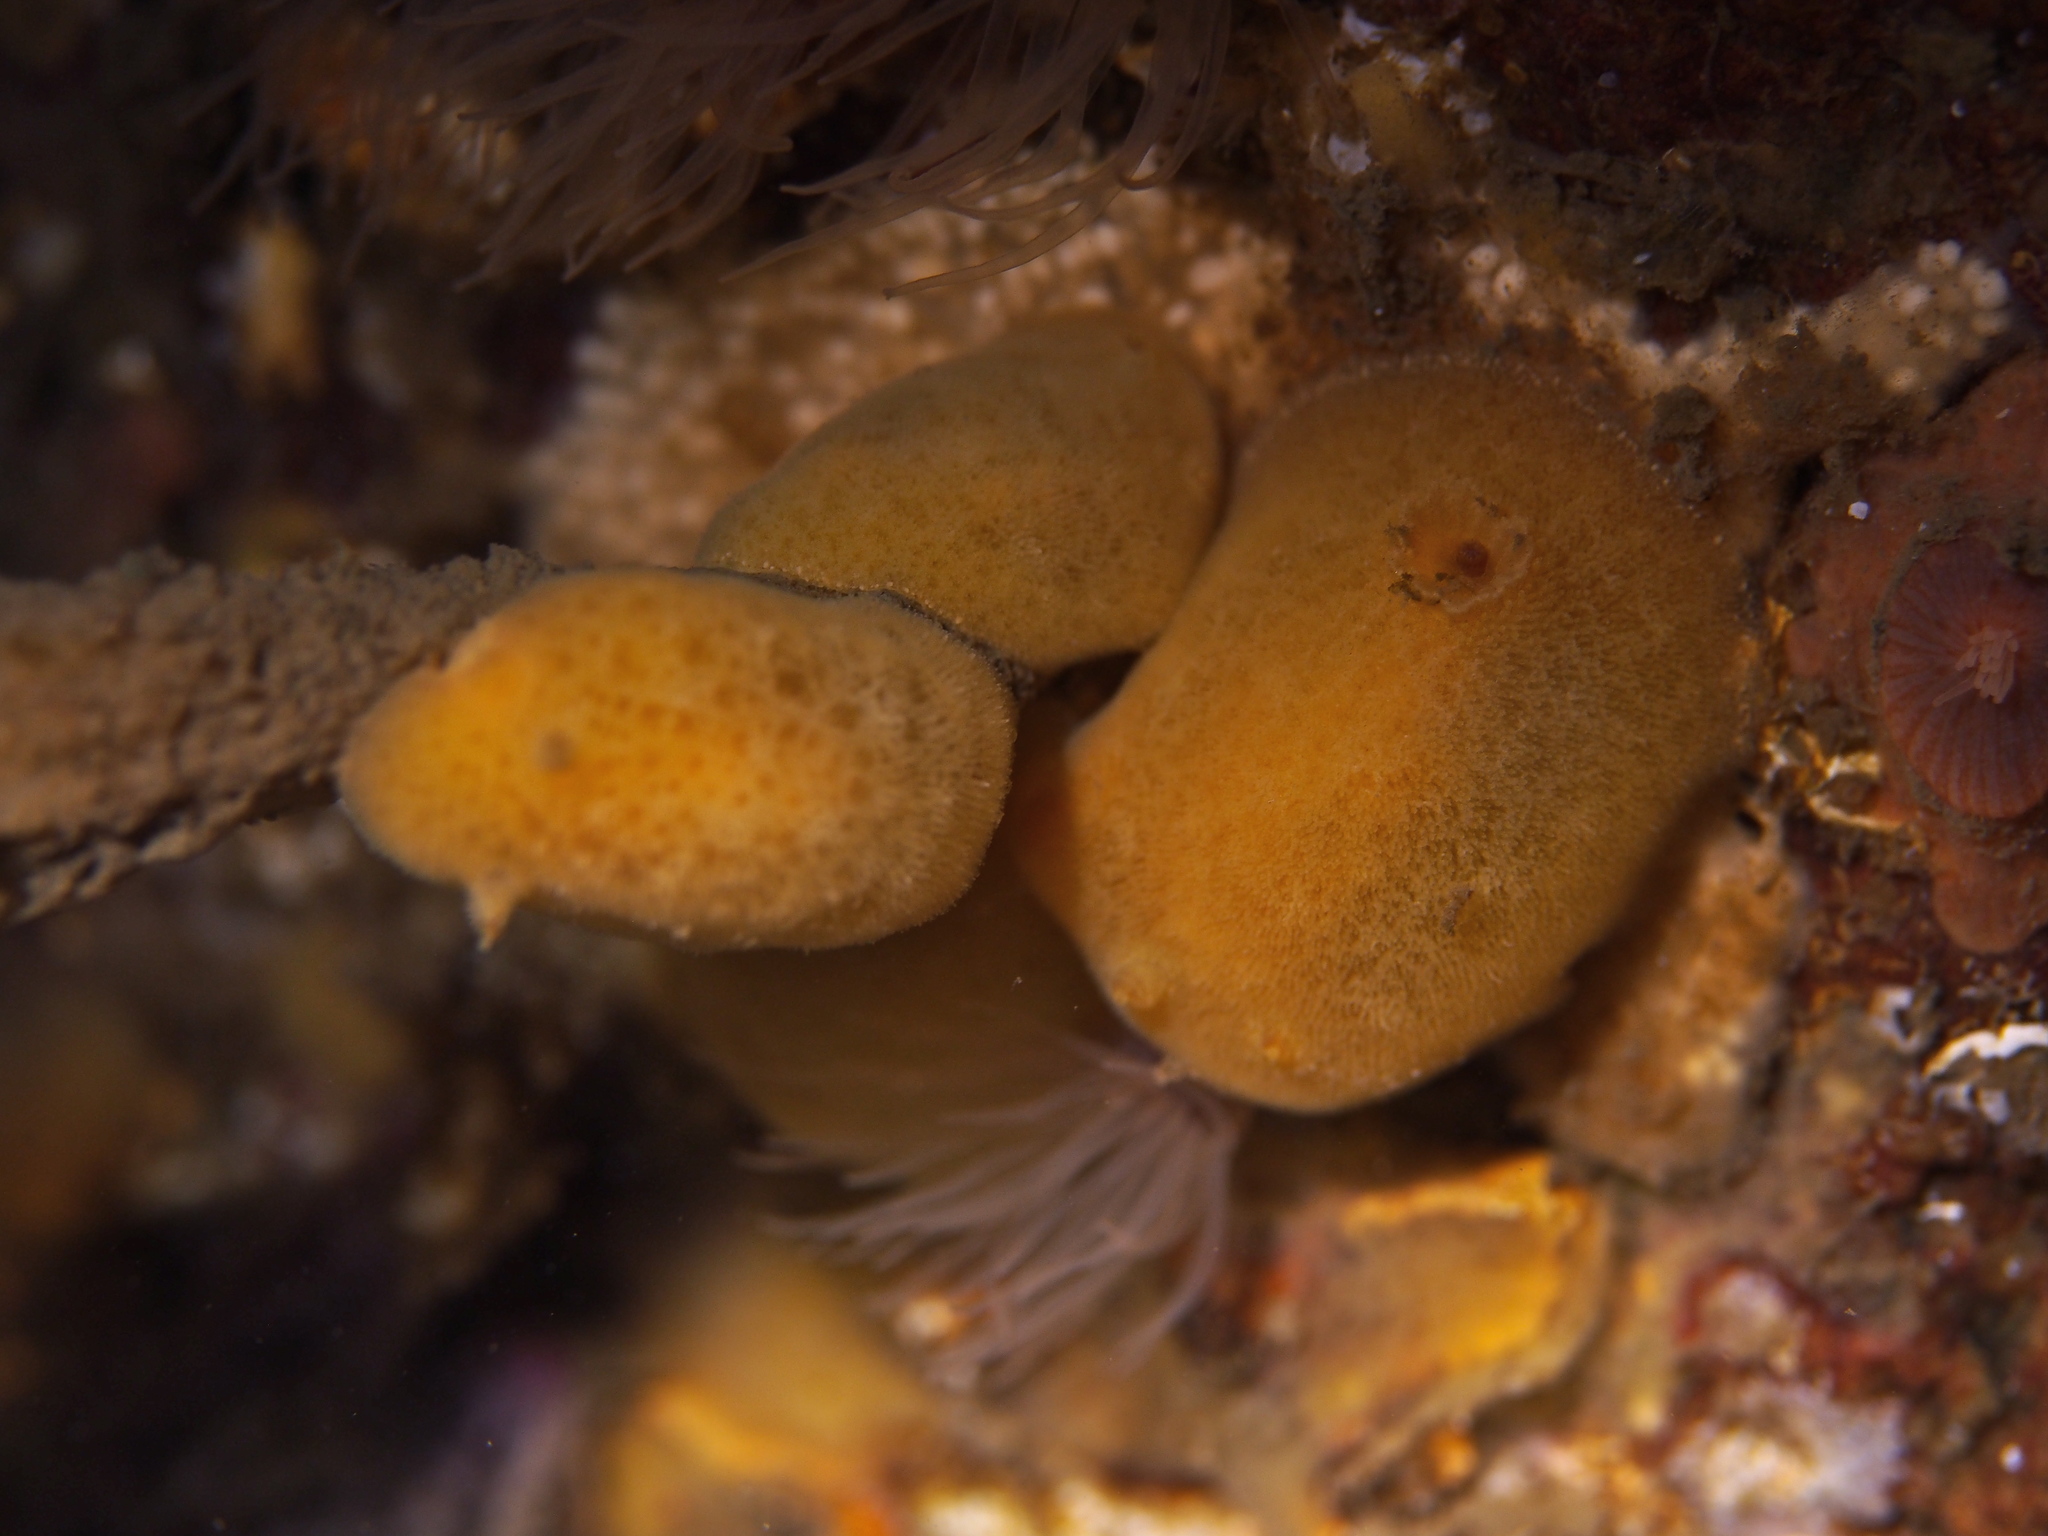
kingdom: Animalia
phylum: Mollusca
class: Gastropoda
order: Nudibranchia
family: Discodorididae
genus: Jorunna
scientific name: Jorunna tomentosa
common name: Grey sea slug
